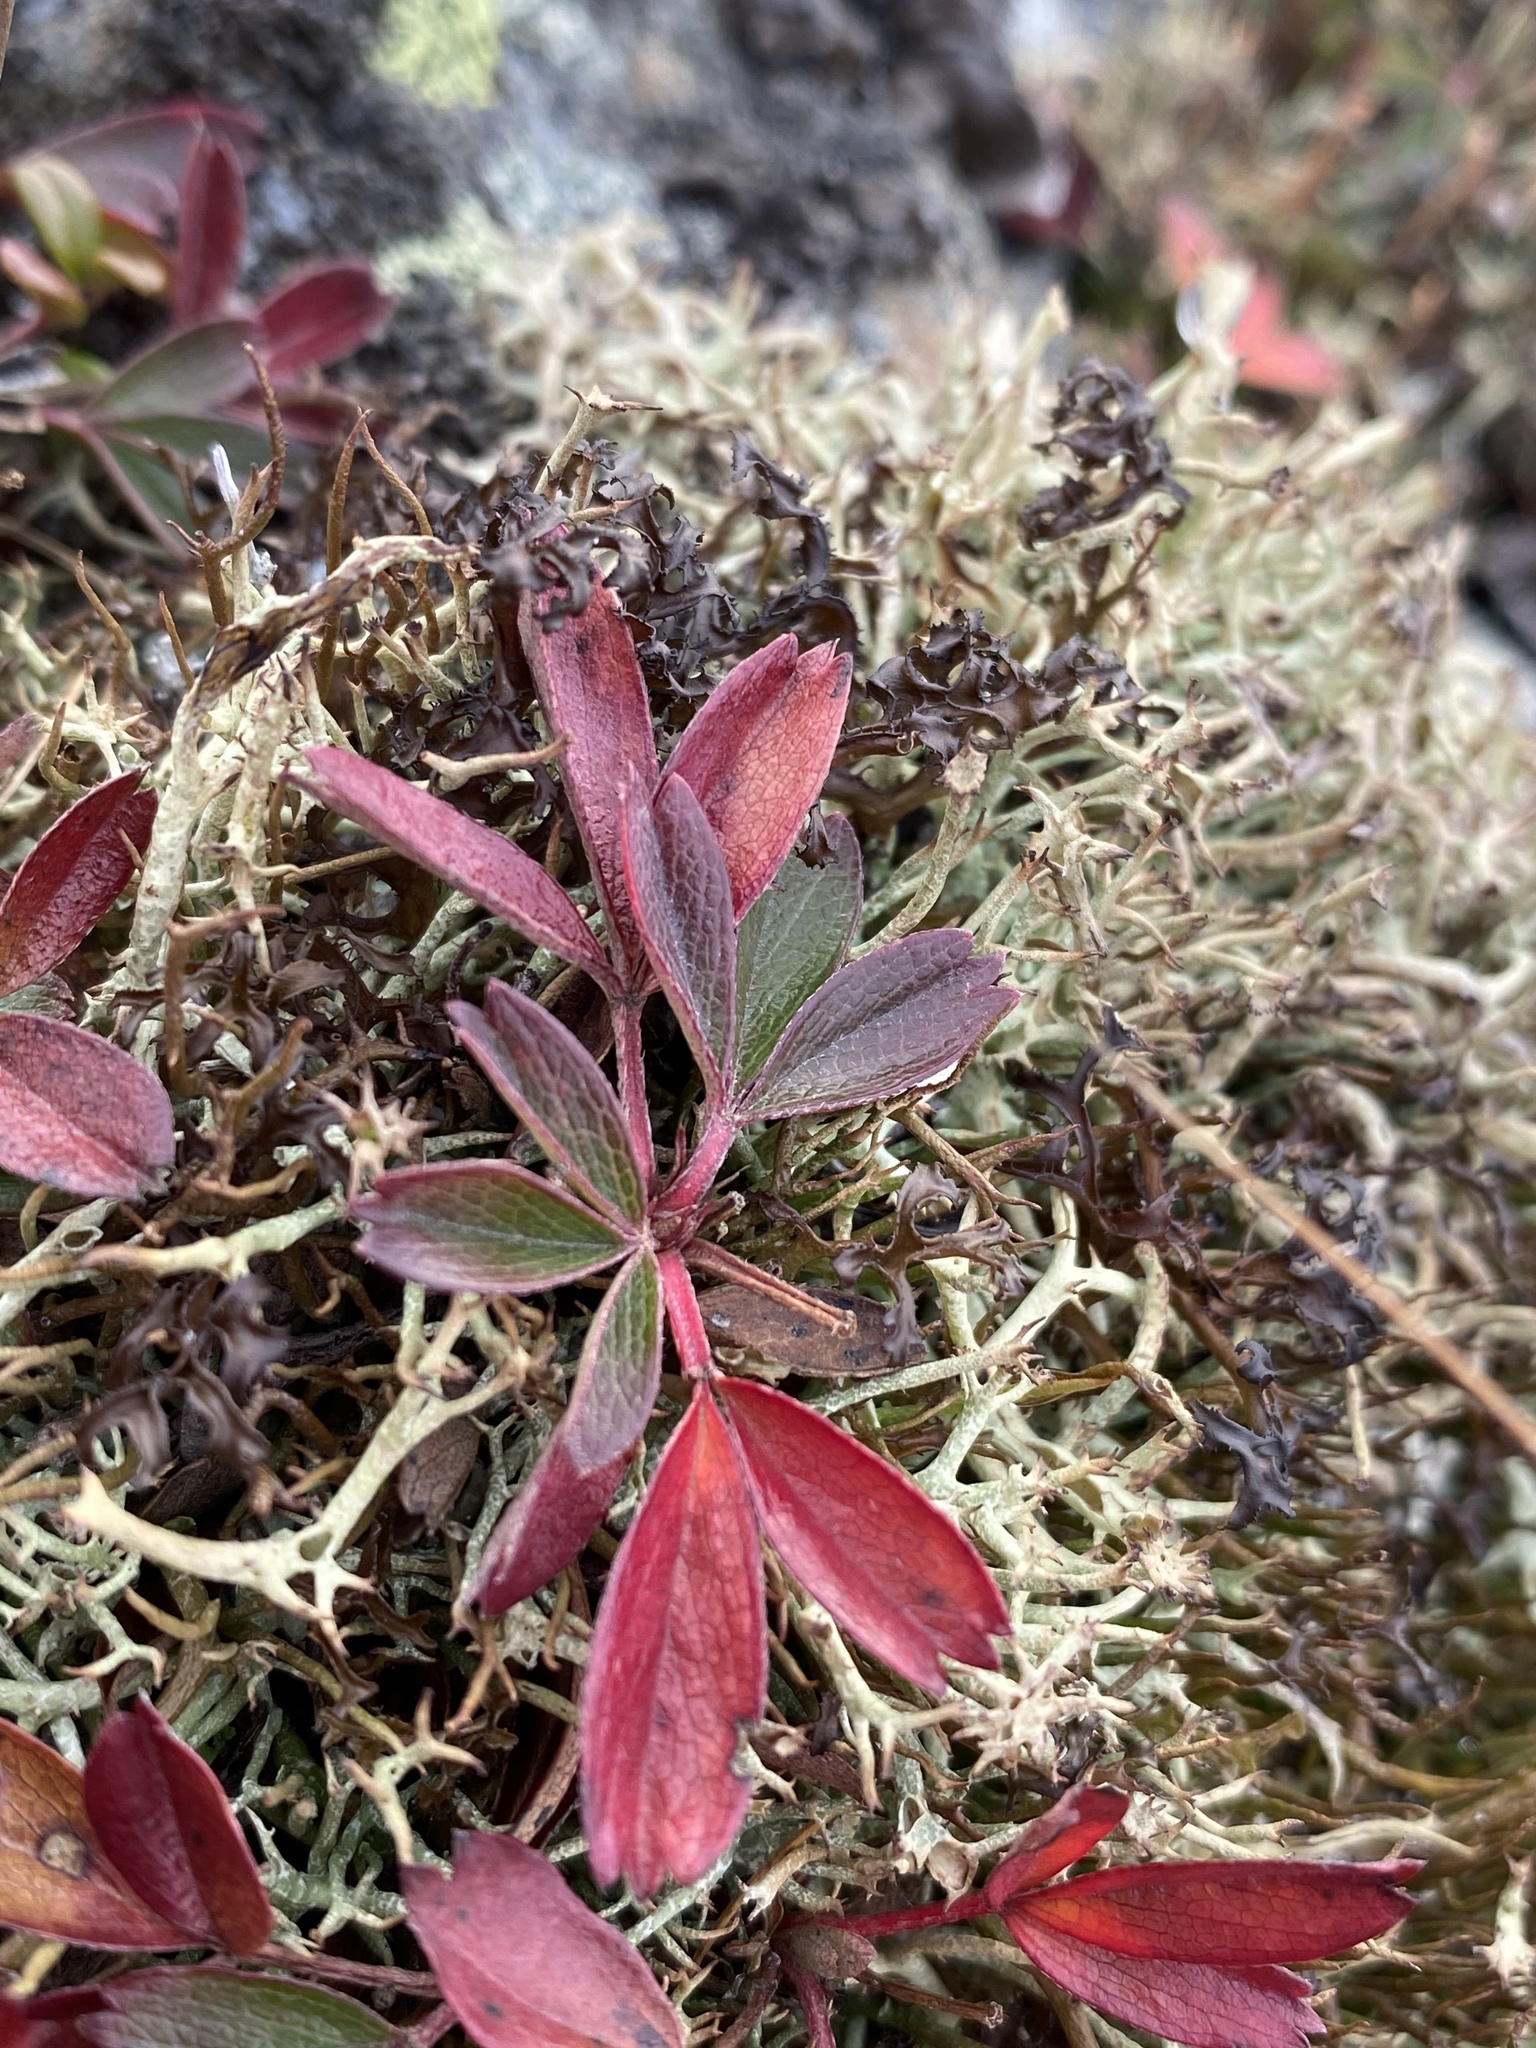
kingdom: Plantae
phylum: Tracheophyta
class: Magnoliopsida
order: Rosales
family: Rosaceae
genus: Sibbaldia
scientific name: Sibbaldia tridentata
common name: Three-toothed cinquefoil
